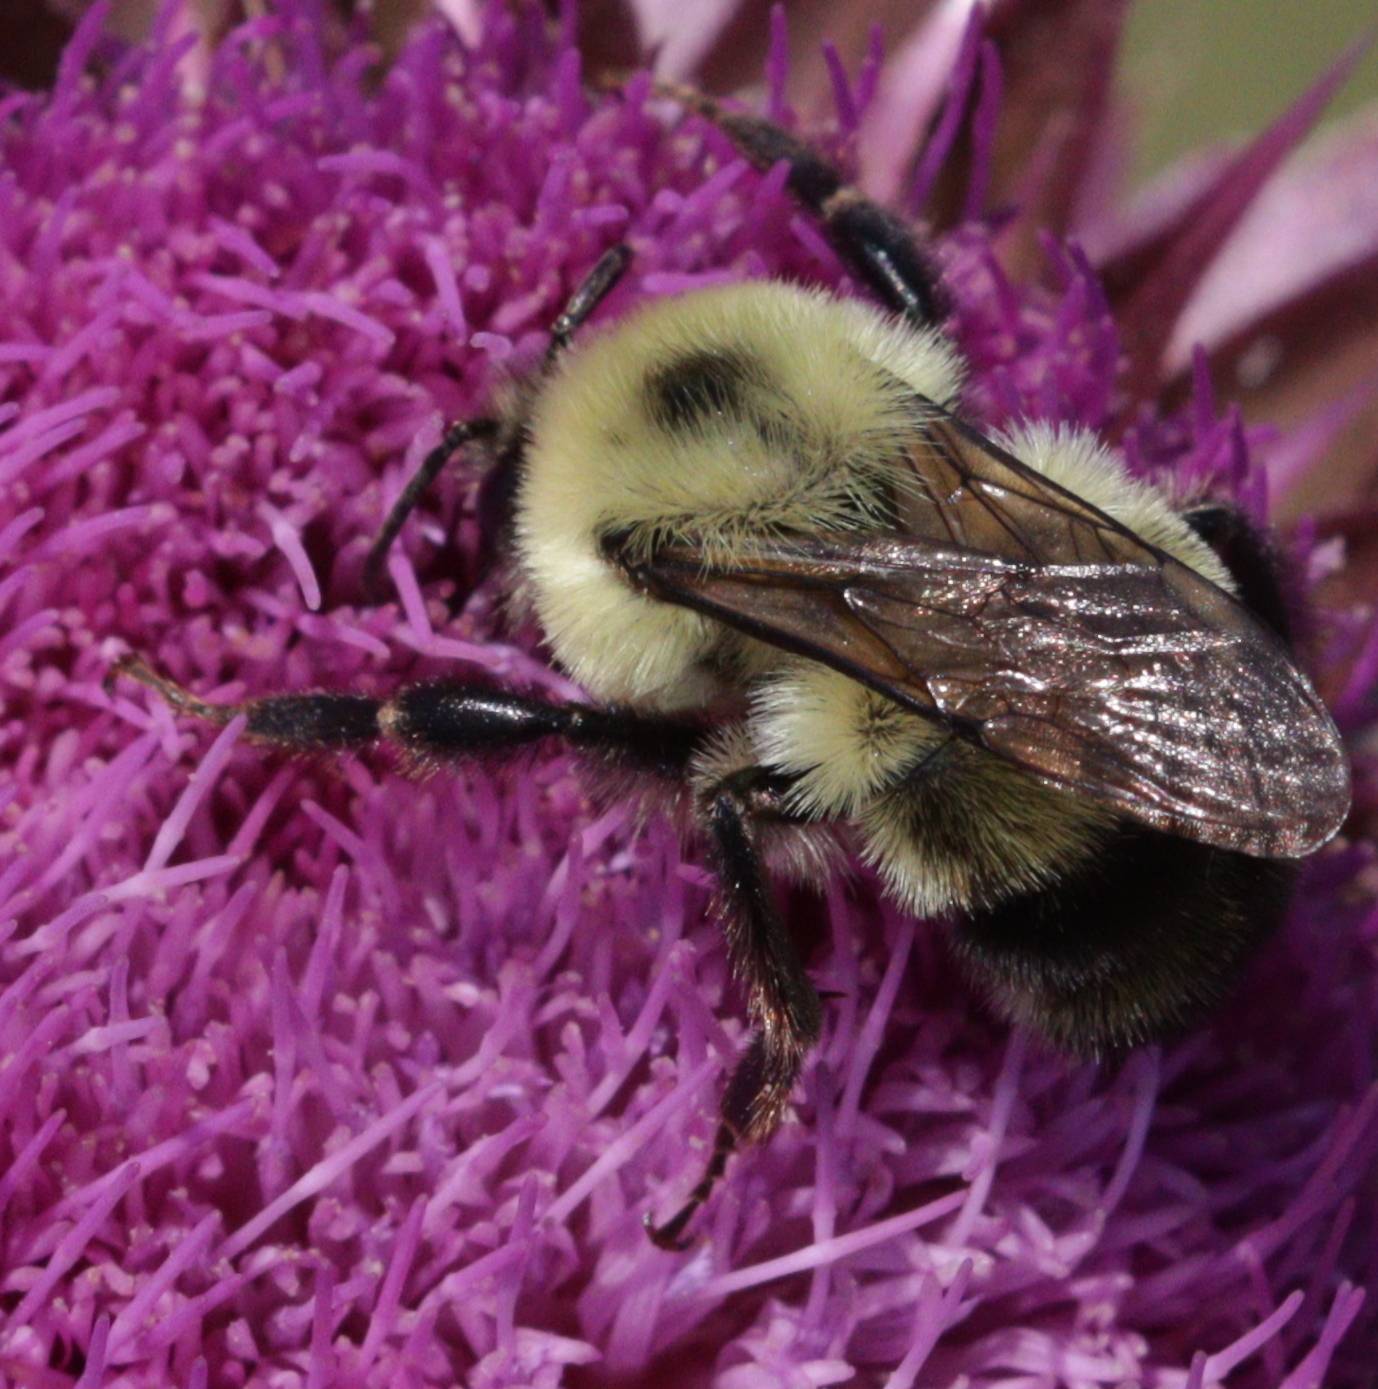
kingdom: Animalia
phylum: Arthropoda
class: Insecta
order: Hymenoptera
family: Apidae
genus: Bombus
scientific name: Bombus bimaculatus
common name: Two-spotted bumble bee
